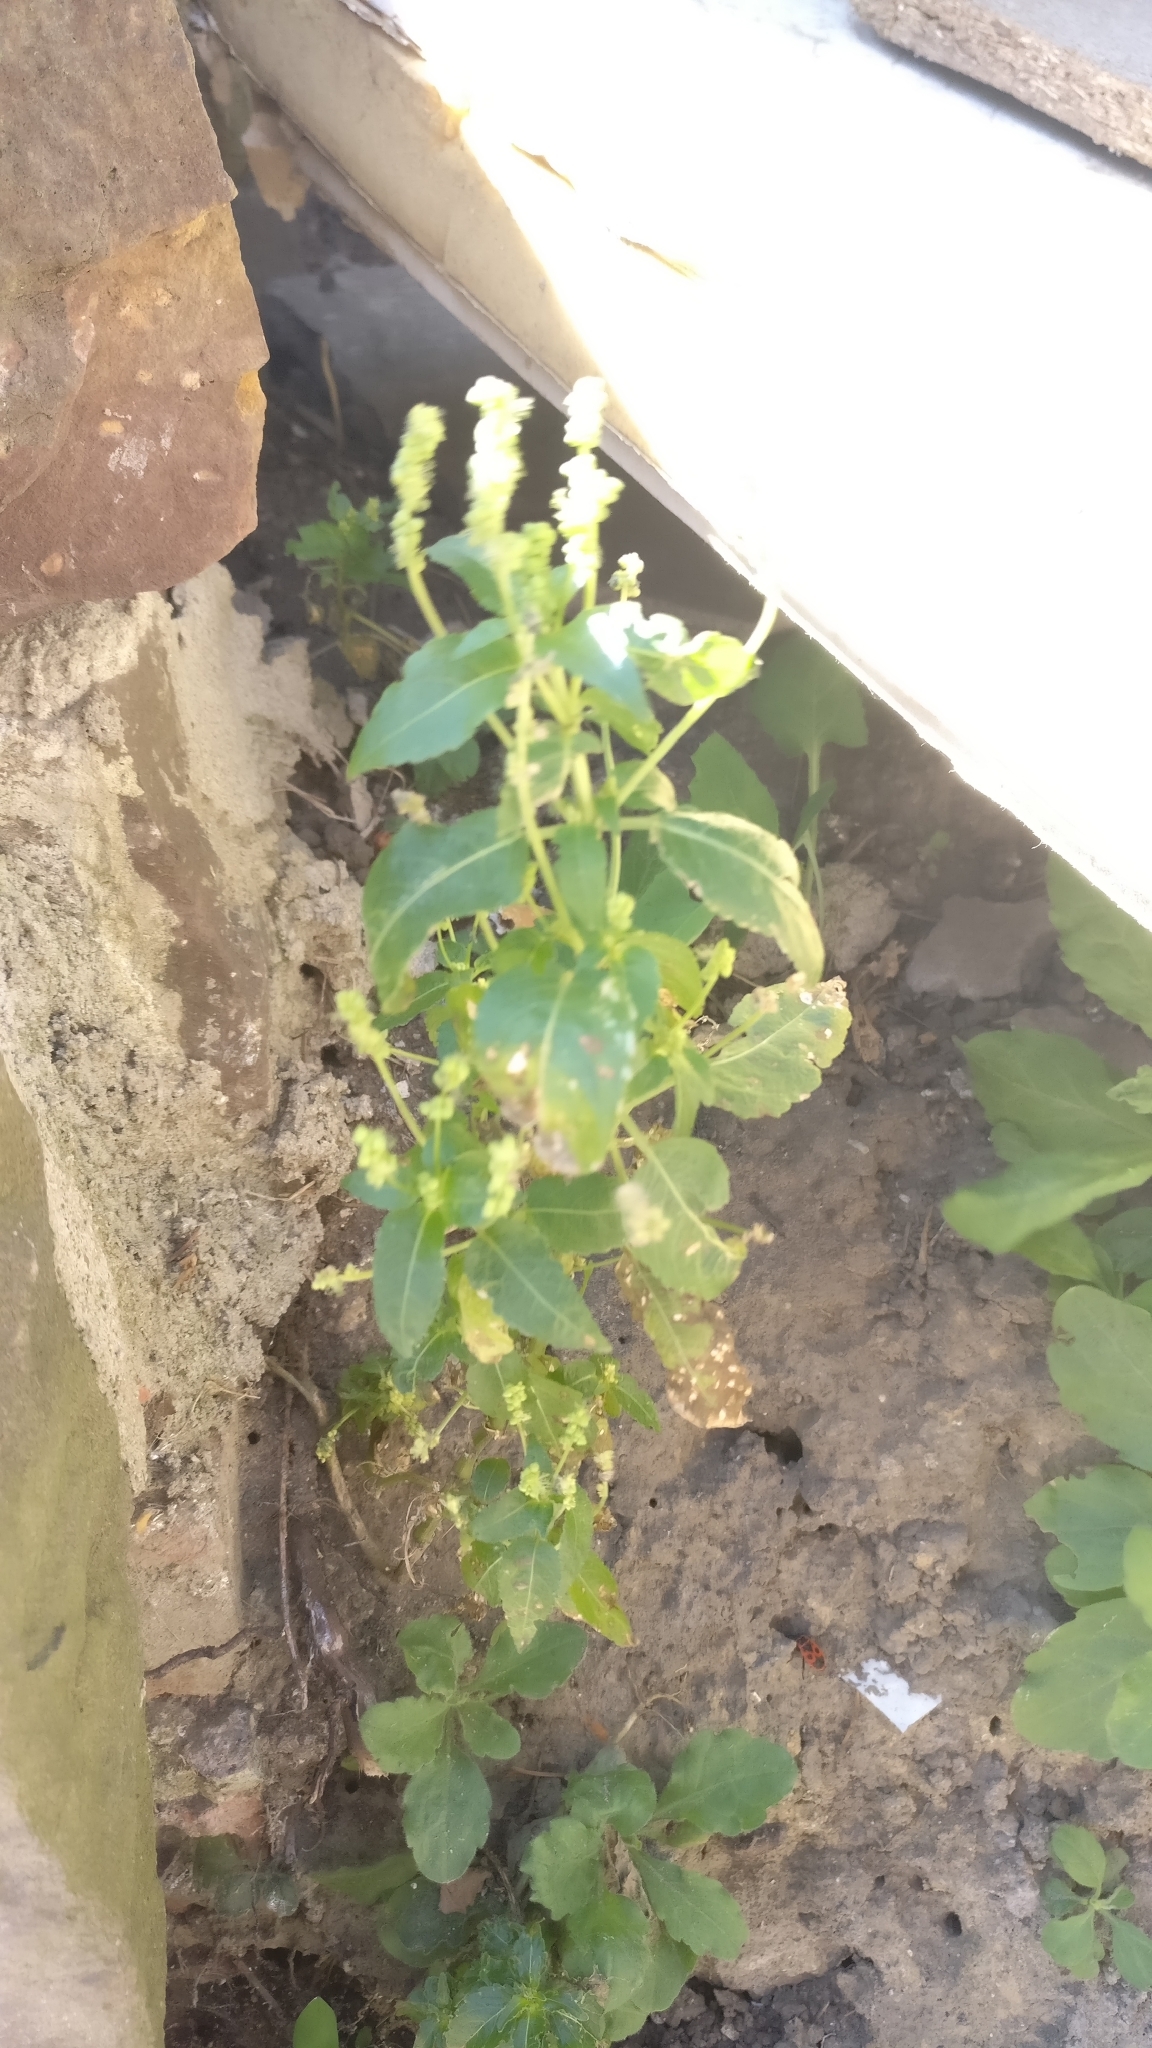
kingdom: Plantae
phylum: Tracheophyta
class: Magnoliopsida
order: Malpighiales
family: Euphorbiaceae
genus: Mercurialis
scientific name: Mercurialis annua
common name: Annual mercury
